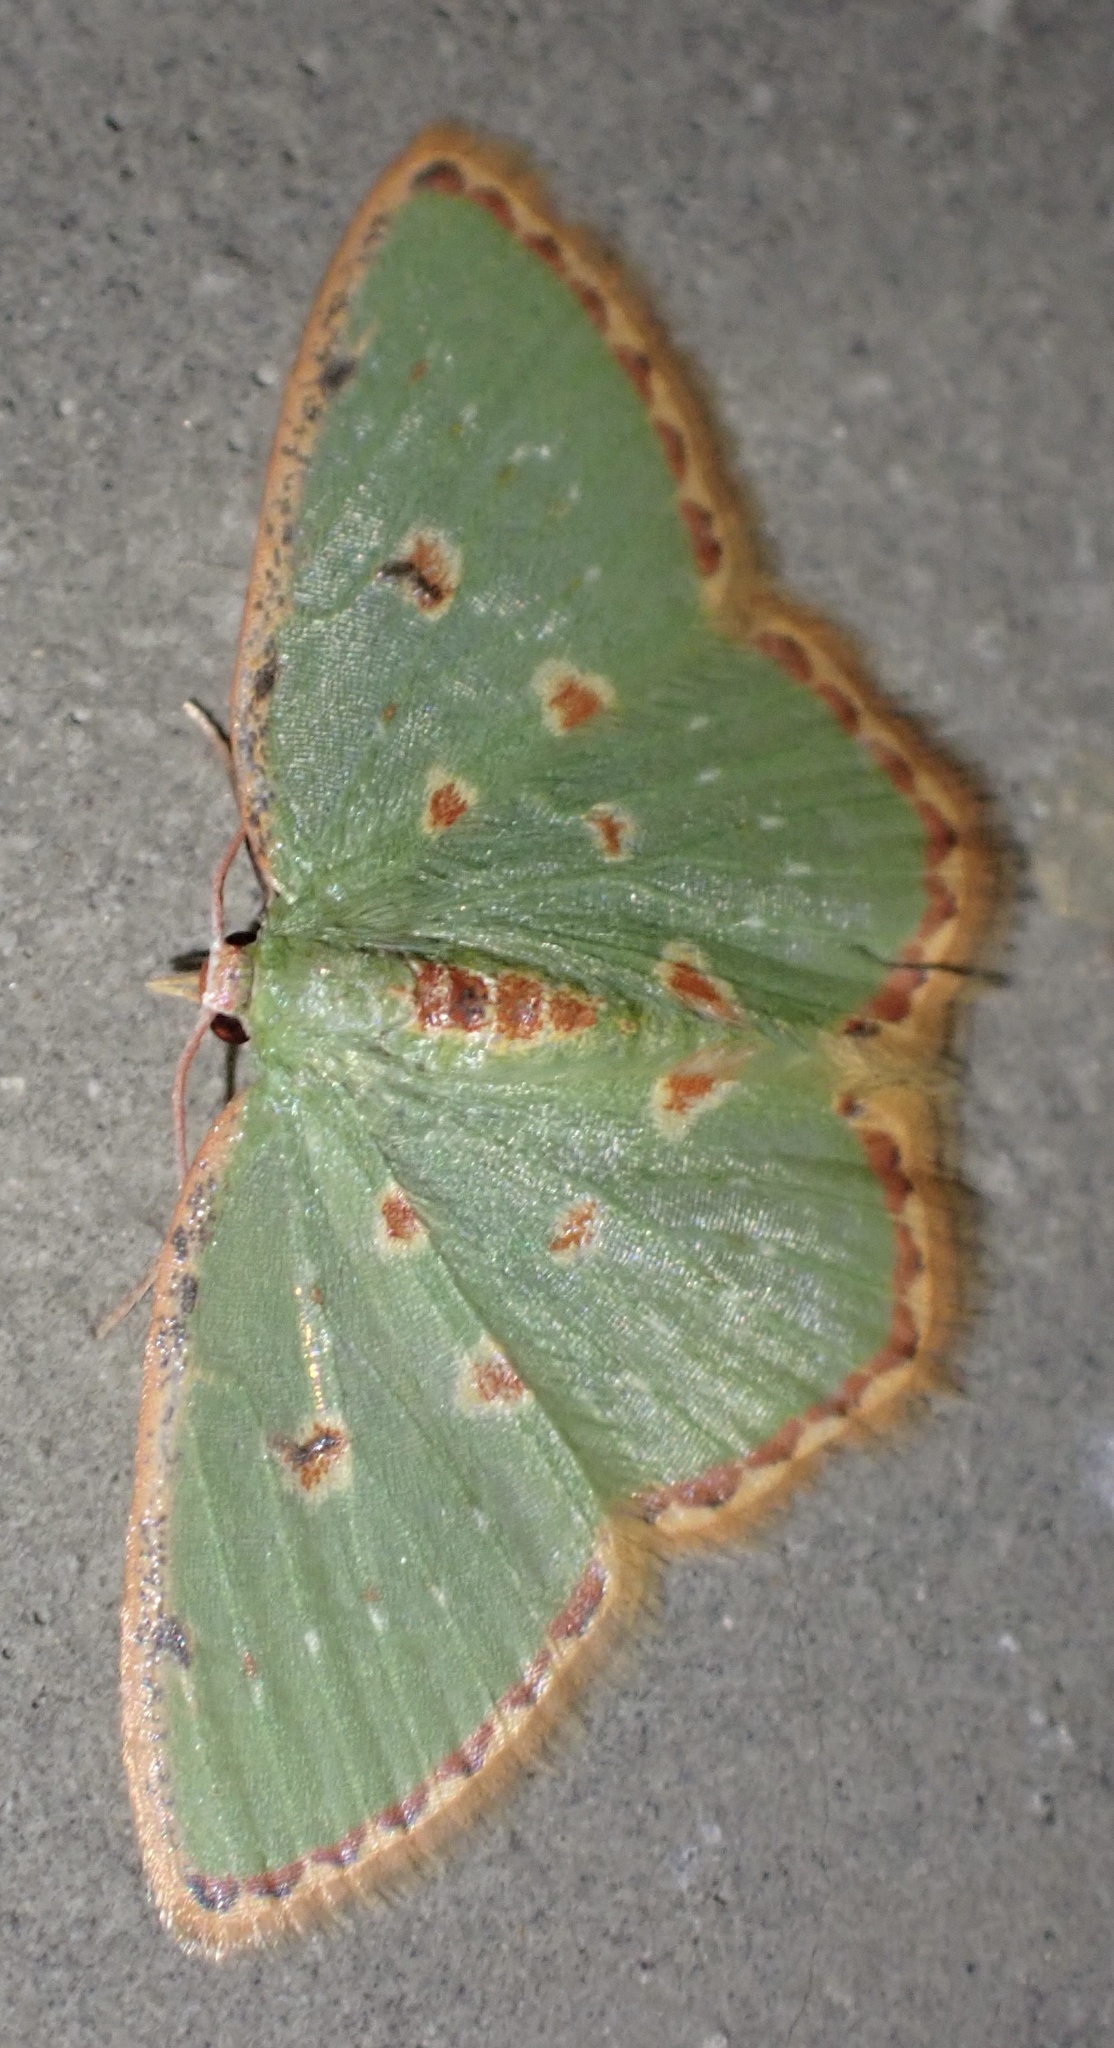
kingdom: Animalia
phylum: Arthropoda
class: Insecta
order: Lepidoptera
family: Geometridae
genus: Comostola
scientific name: Comostola laesaria
